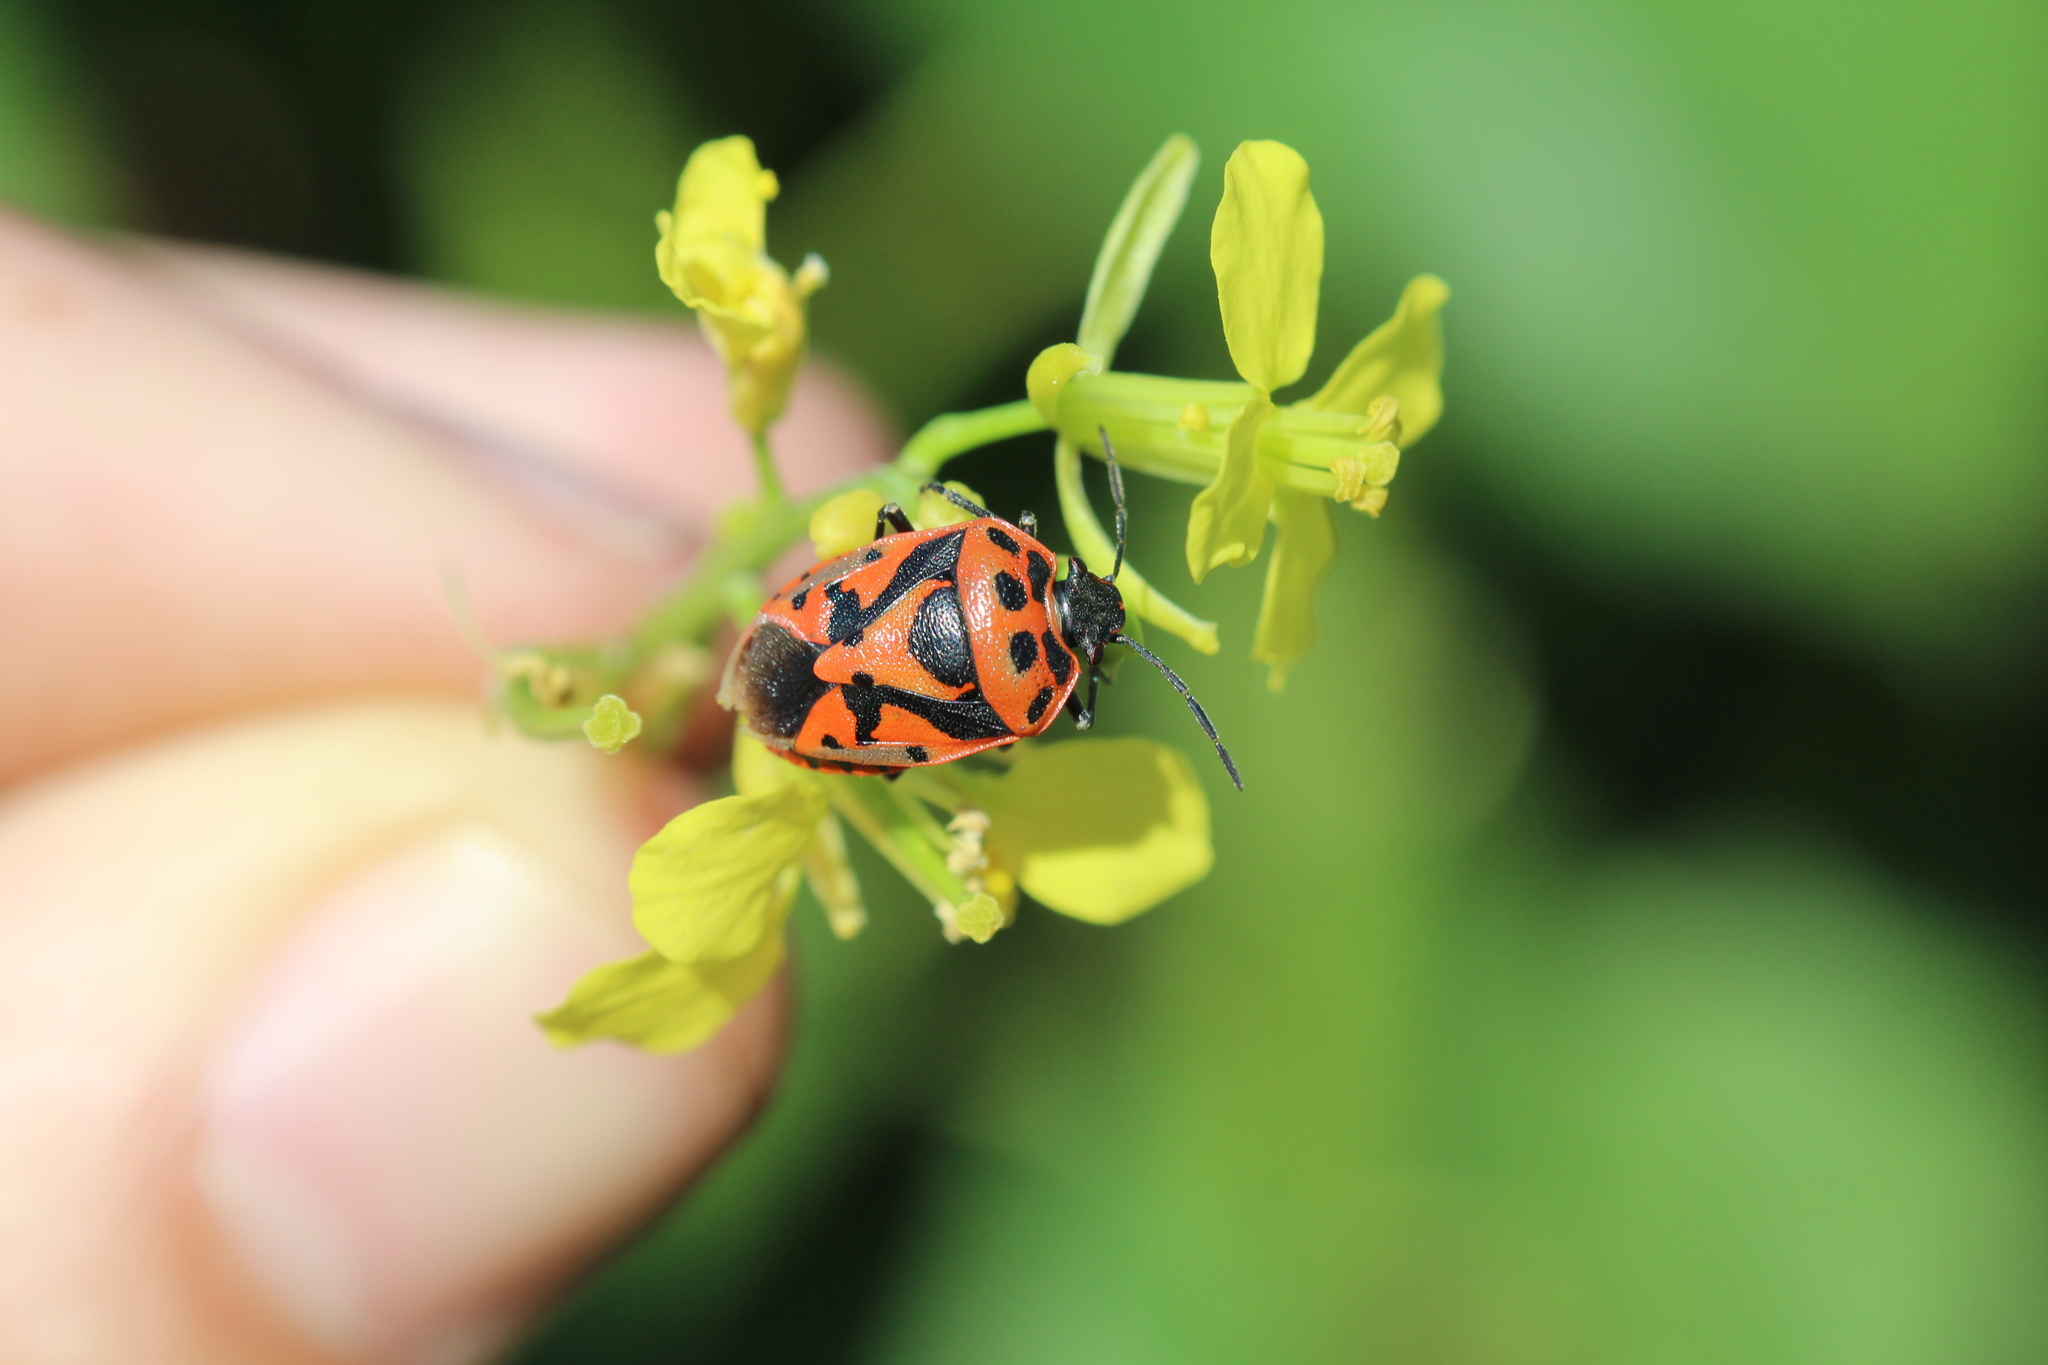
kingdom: Animalia
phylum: Arthropoda
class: Insecta
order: Hemiptera
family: Pentatomidae
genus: Eurydema
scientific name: Eurydema ornata
